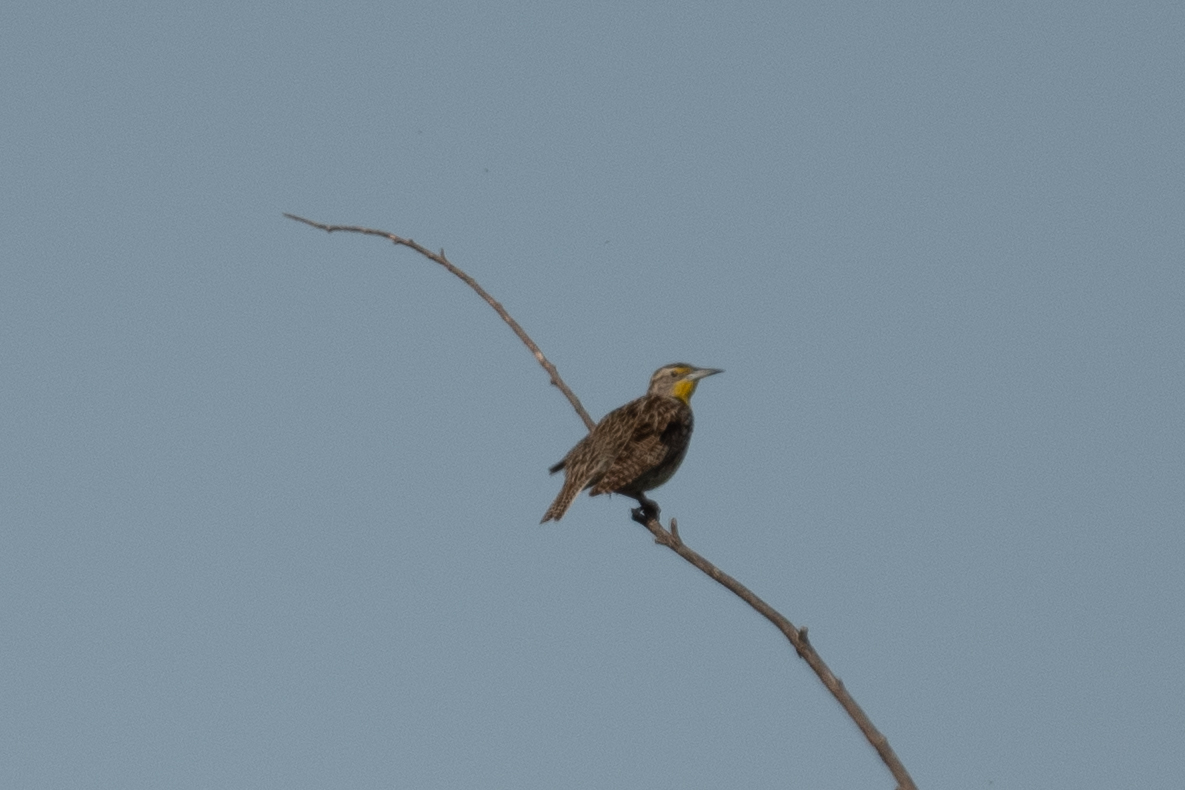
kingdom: Animalia
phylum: Chordata
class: Aves
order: Passeriformes
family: Icteridae
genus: Sturnella
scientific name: Sturnella neglecta
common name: Western meadowlark
